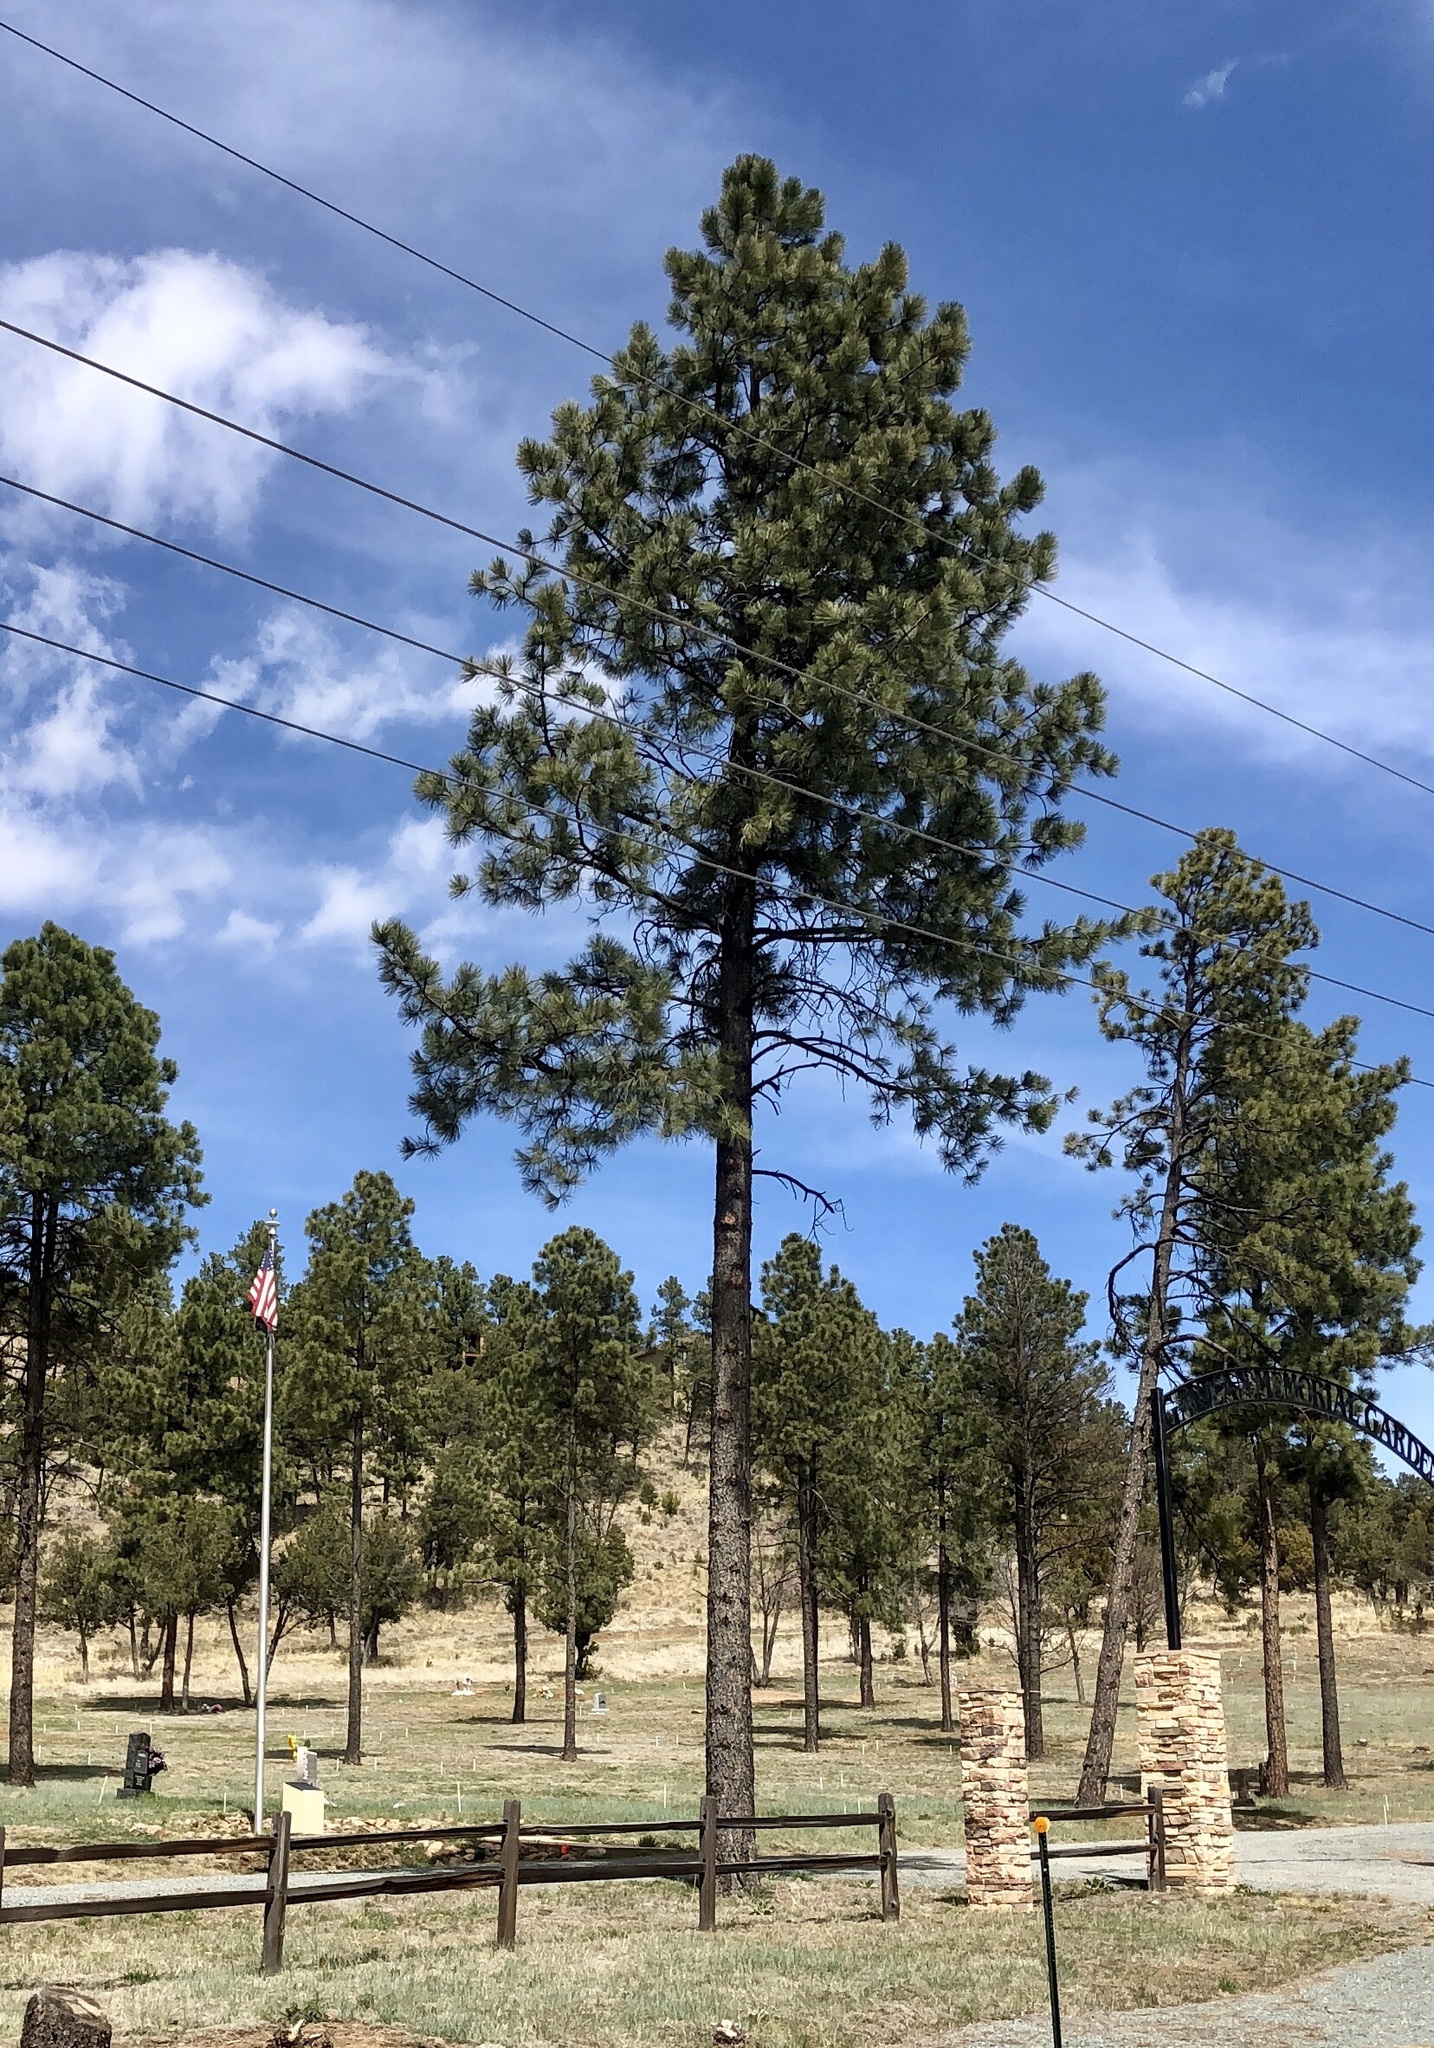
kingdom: Plantae
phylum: Tracheophyta
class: Pinopsida
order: Pinales
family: Pinaceae
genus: Pinus
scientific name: Pinus ponderosa
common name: Western yellow-pine
